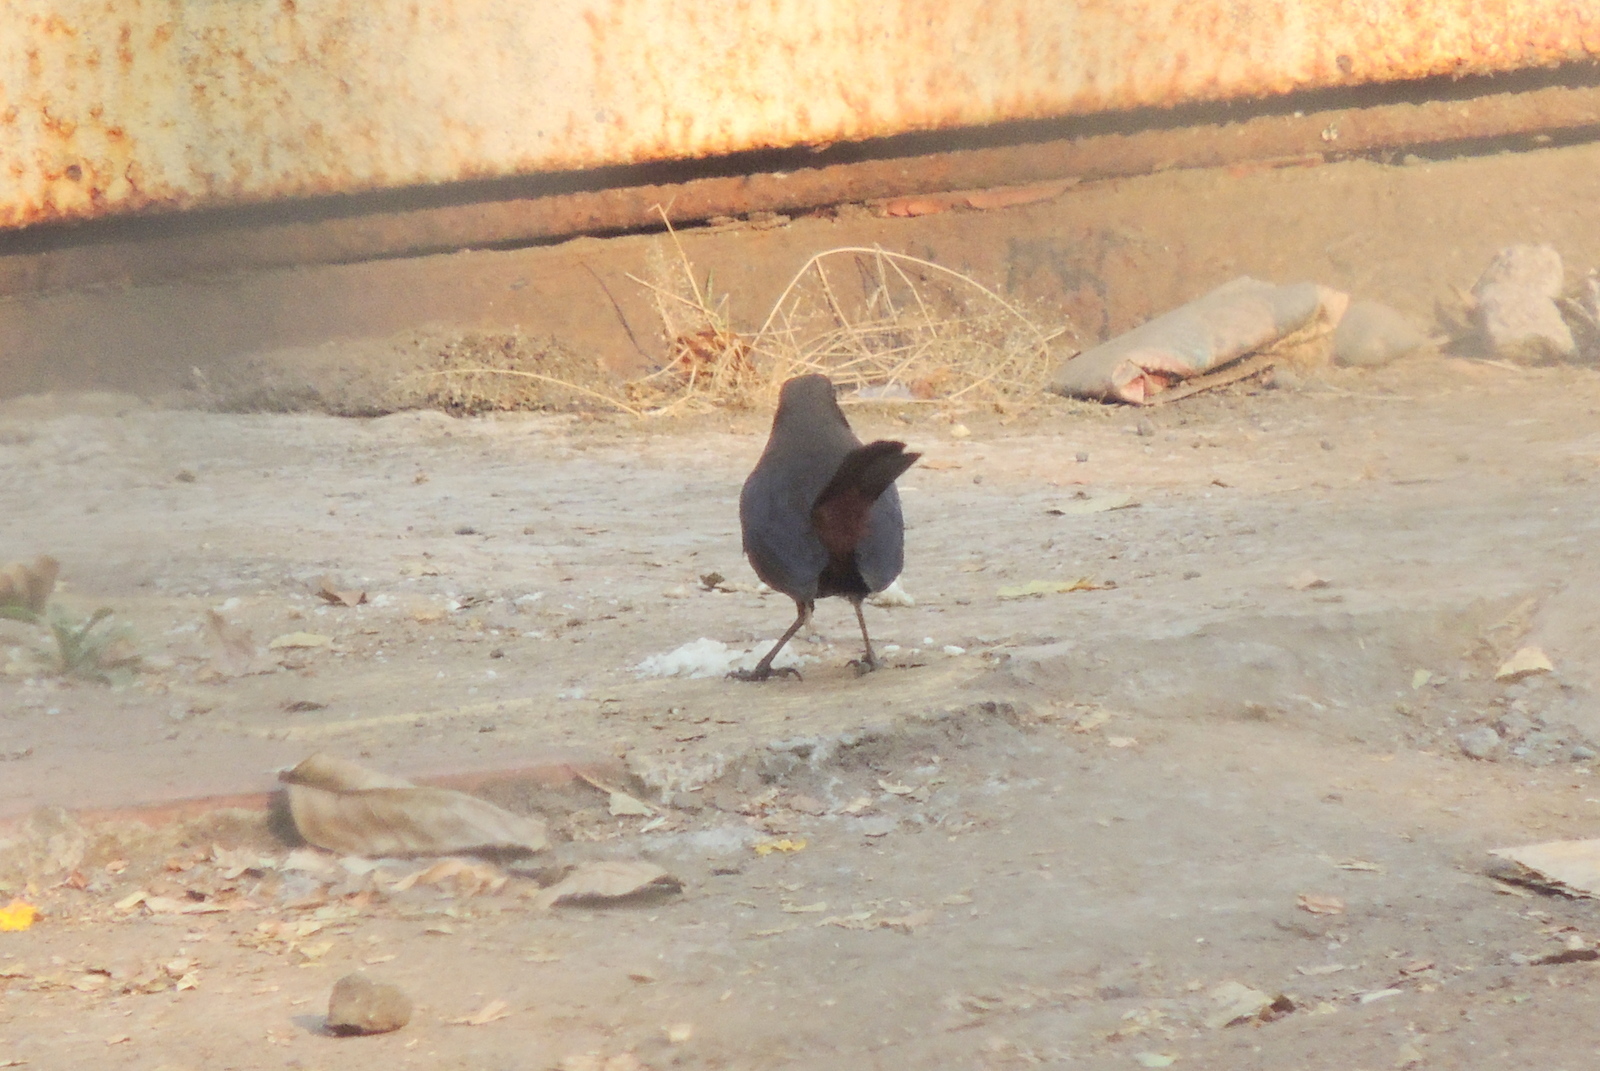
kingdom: Animalia
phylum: Chordata
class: Aves
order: Passeriformes
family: Muscicapidae
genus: Saxicoloides
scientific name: Saxicoloides fulicatus
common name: Indian robin
